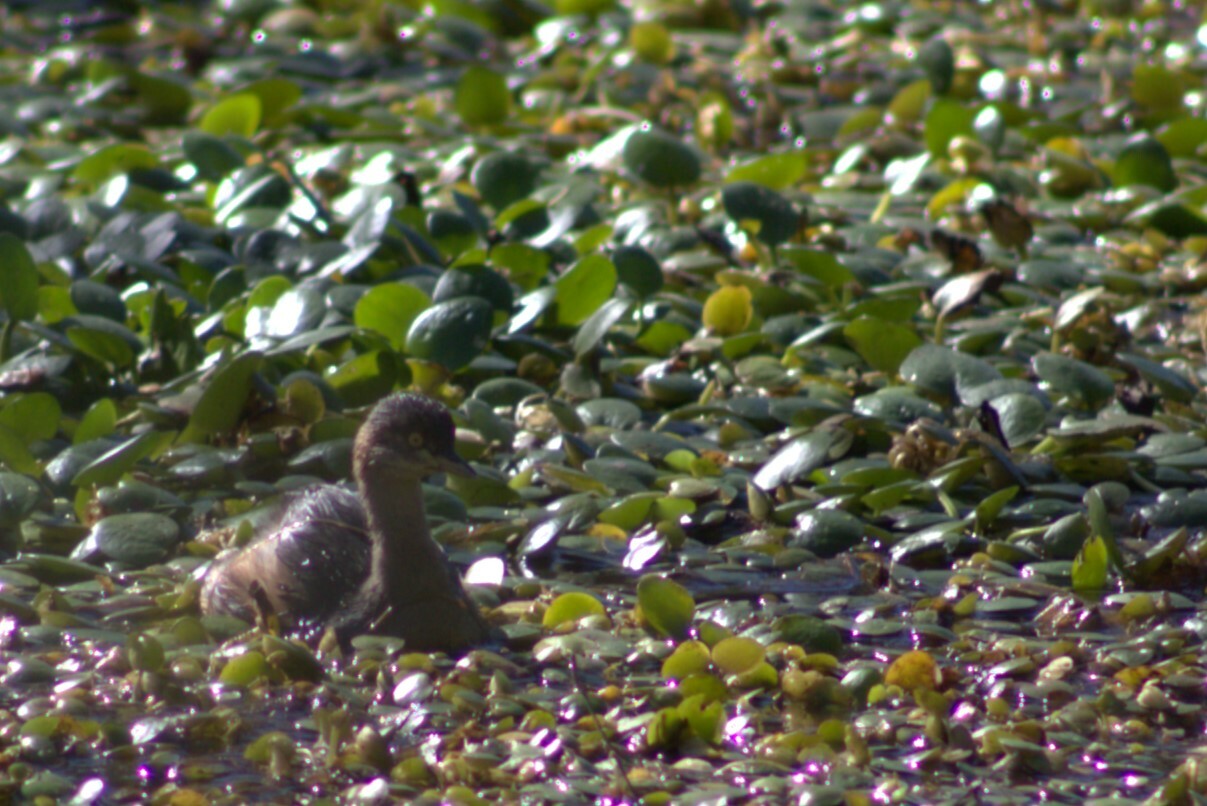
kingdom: Animalia
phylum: Chordata
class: Aves
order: Podicipediformes
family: Podicipedidae
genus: Tachybaptus
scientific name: Tachybaptus novaehollandiae
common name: Australasian grebe
